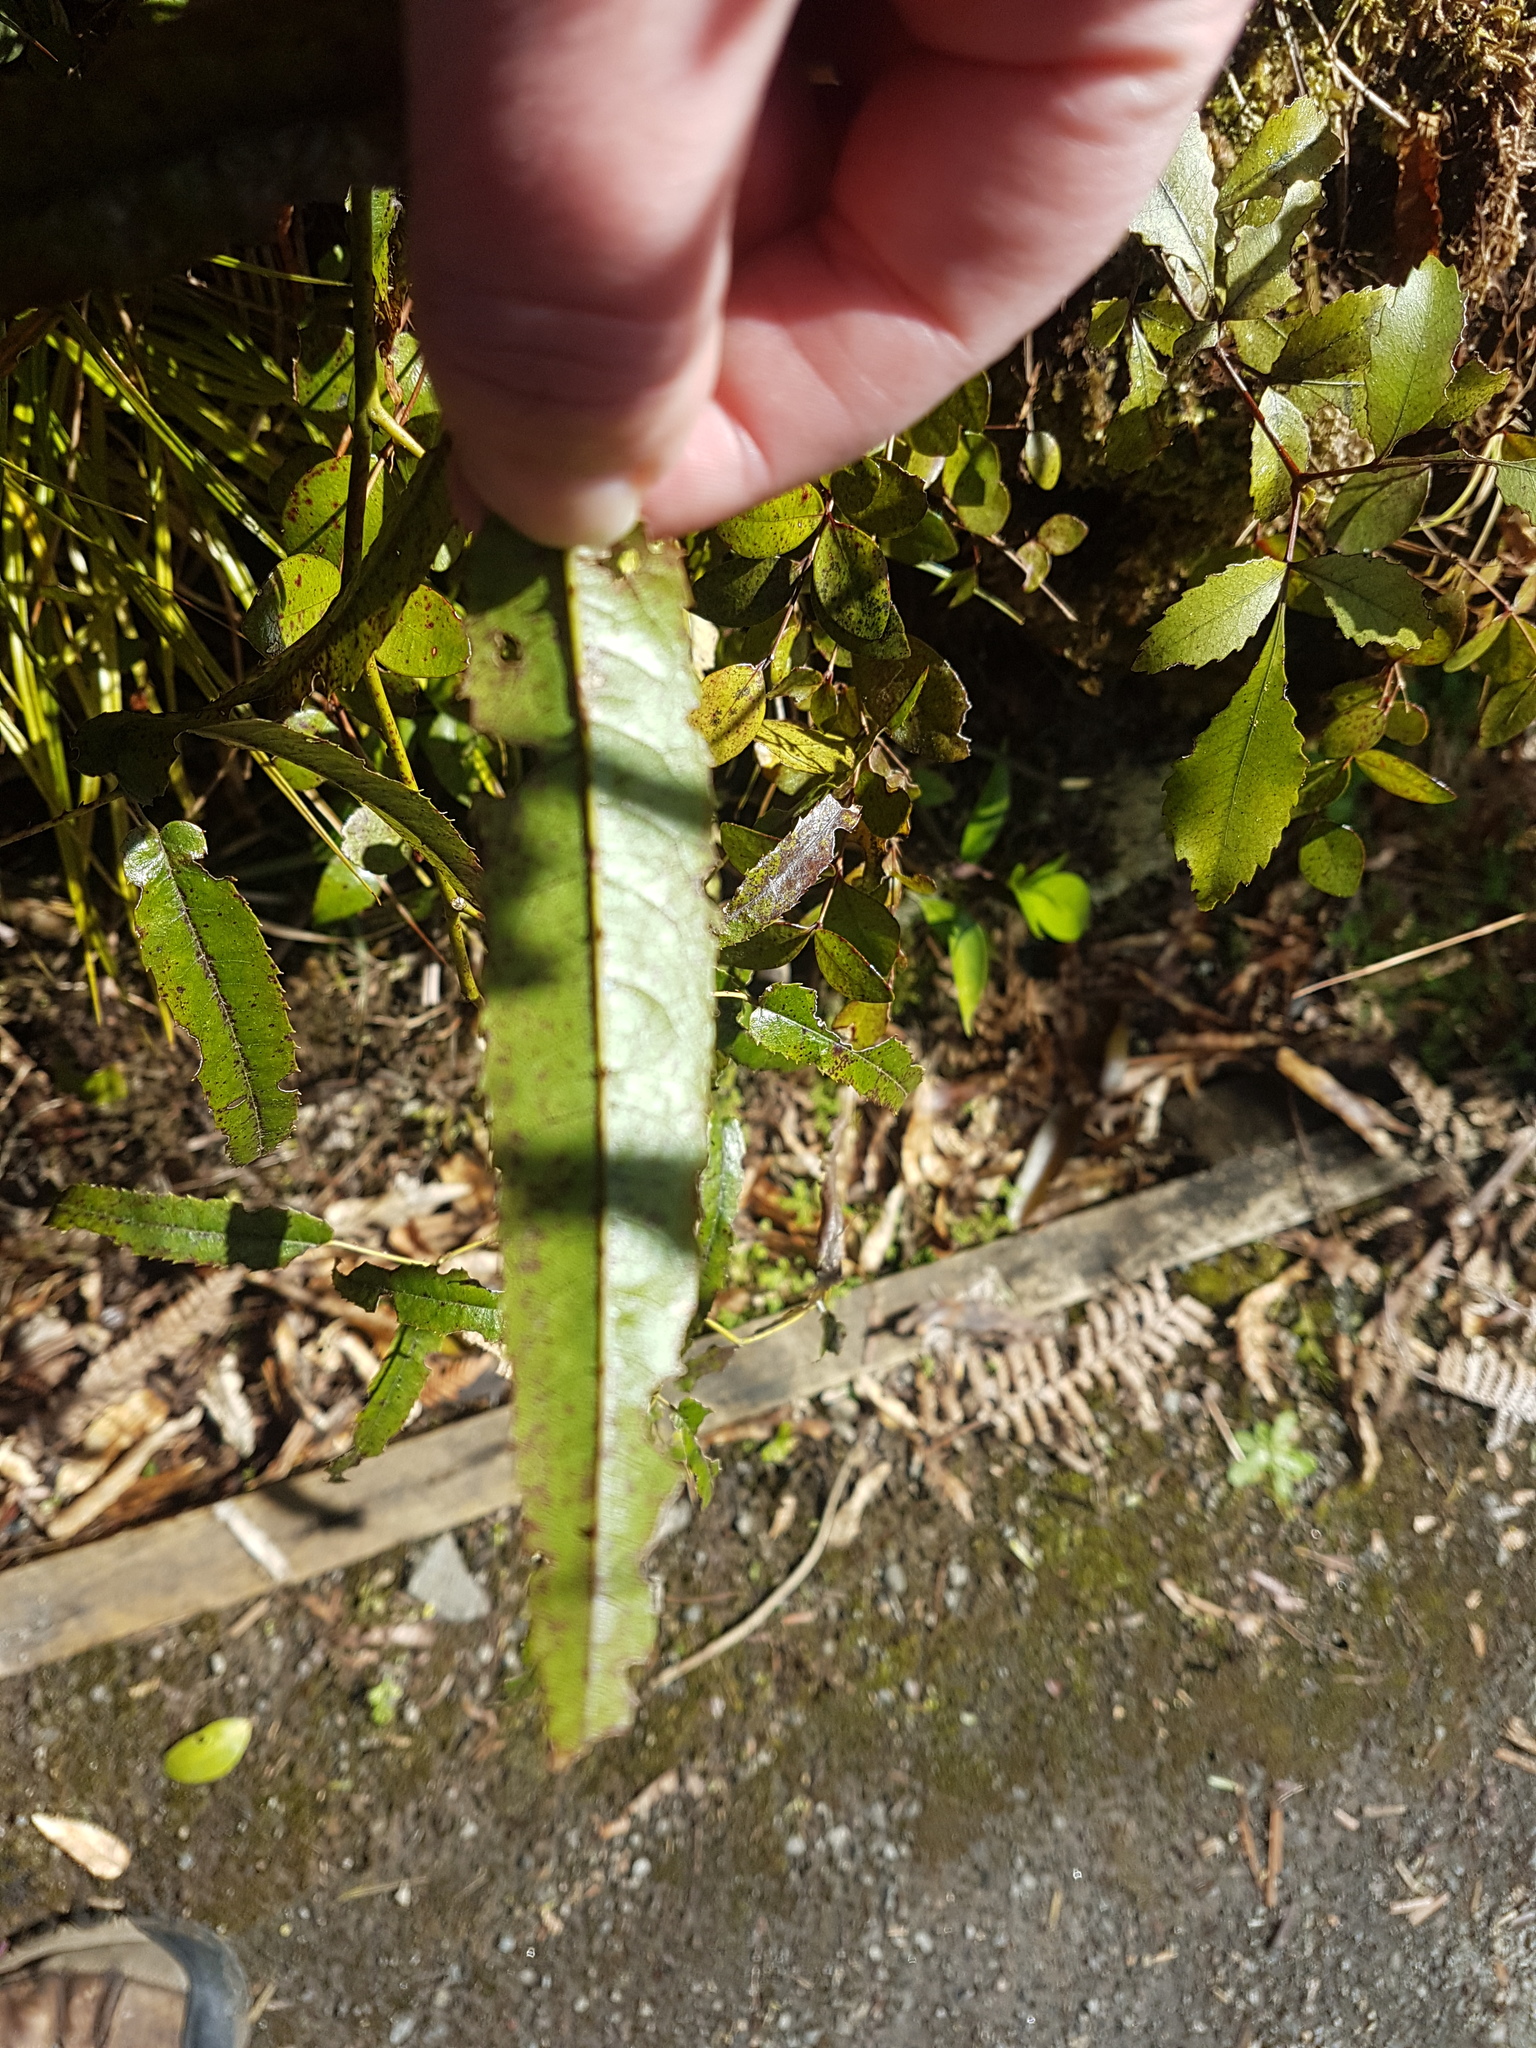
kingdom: Plantae
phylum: Tracheophyta
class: Magnoliopsida
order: Rosales
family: Rosaceae
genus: Rubus
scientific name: Rubus cissoides
